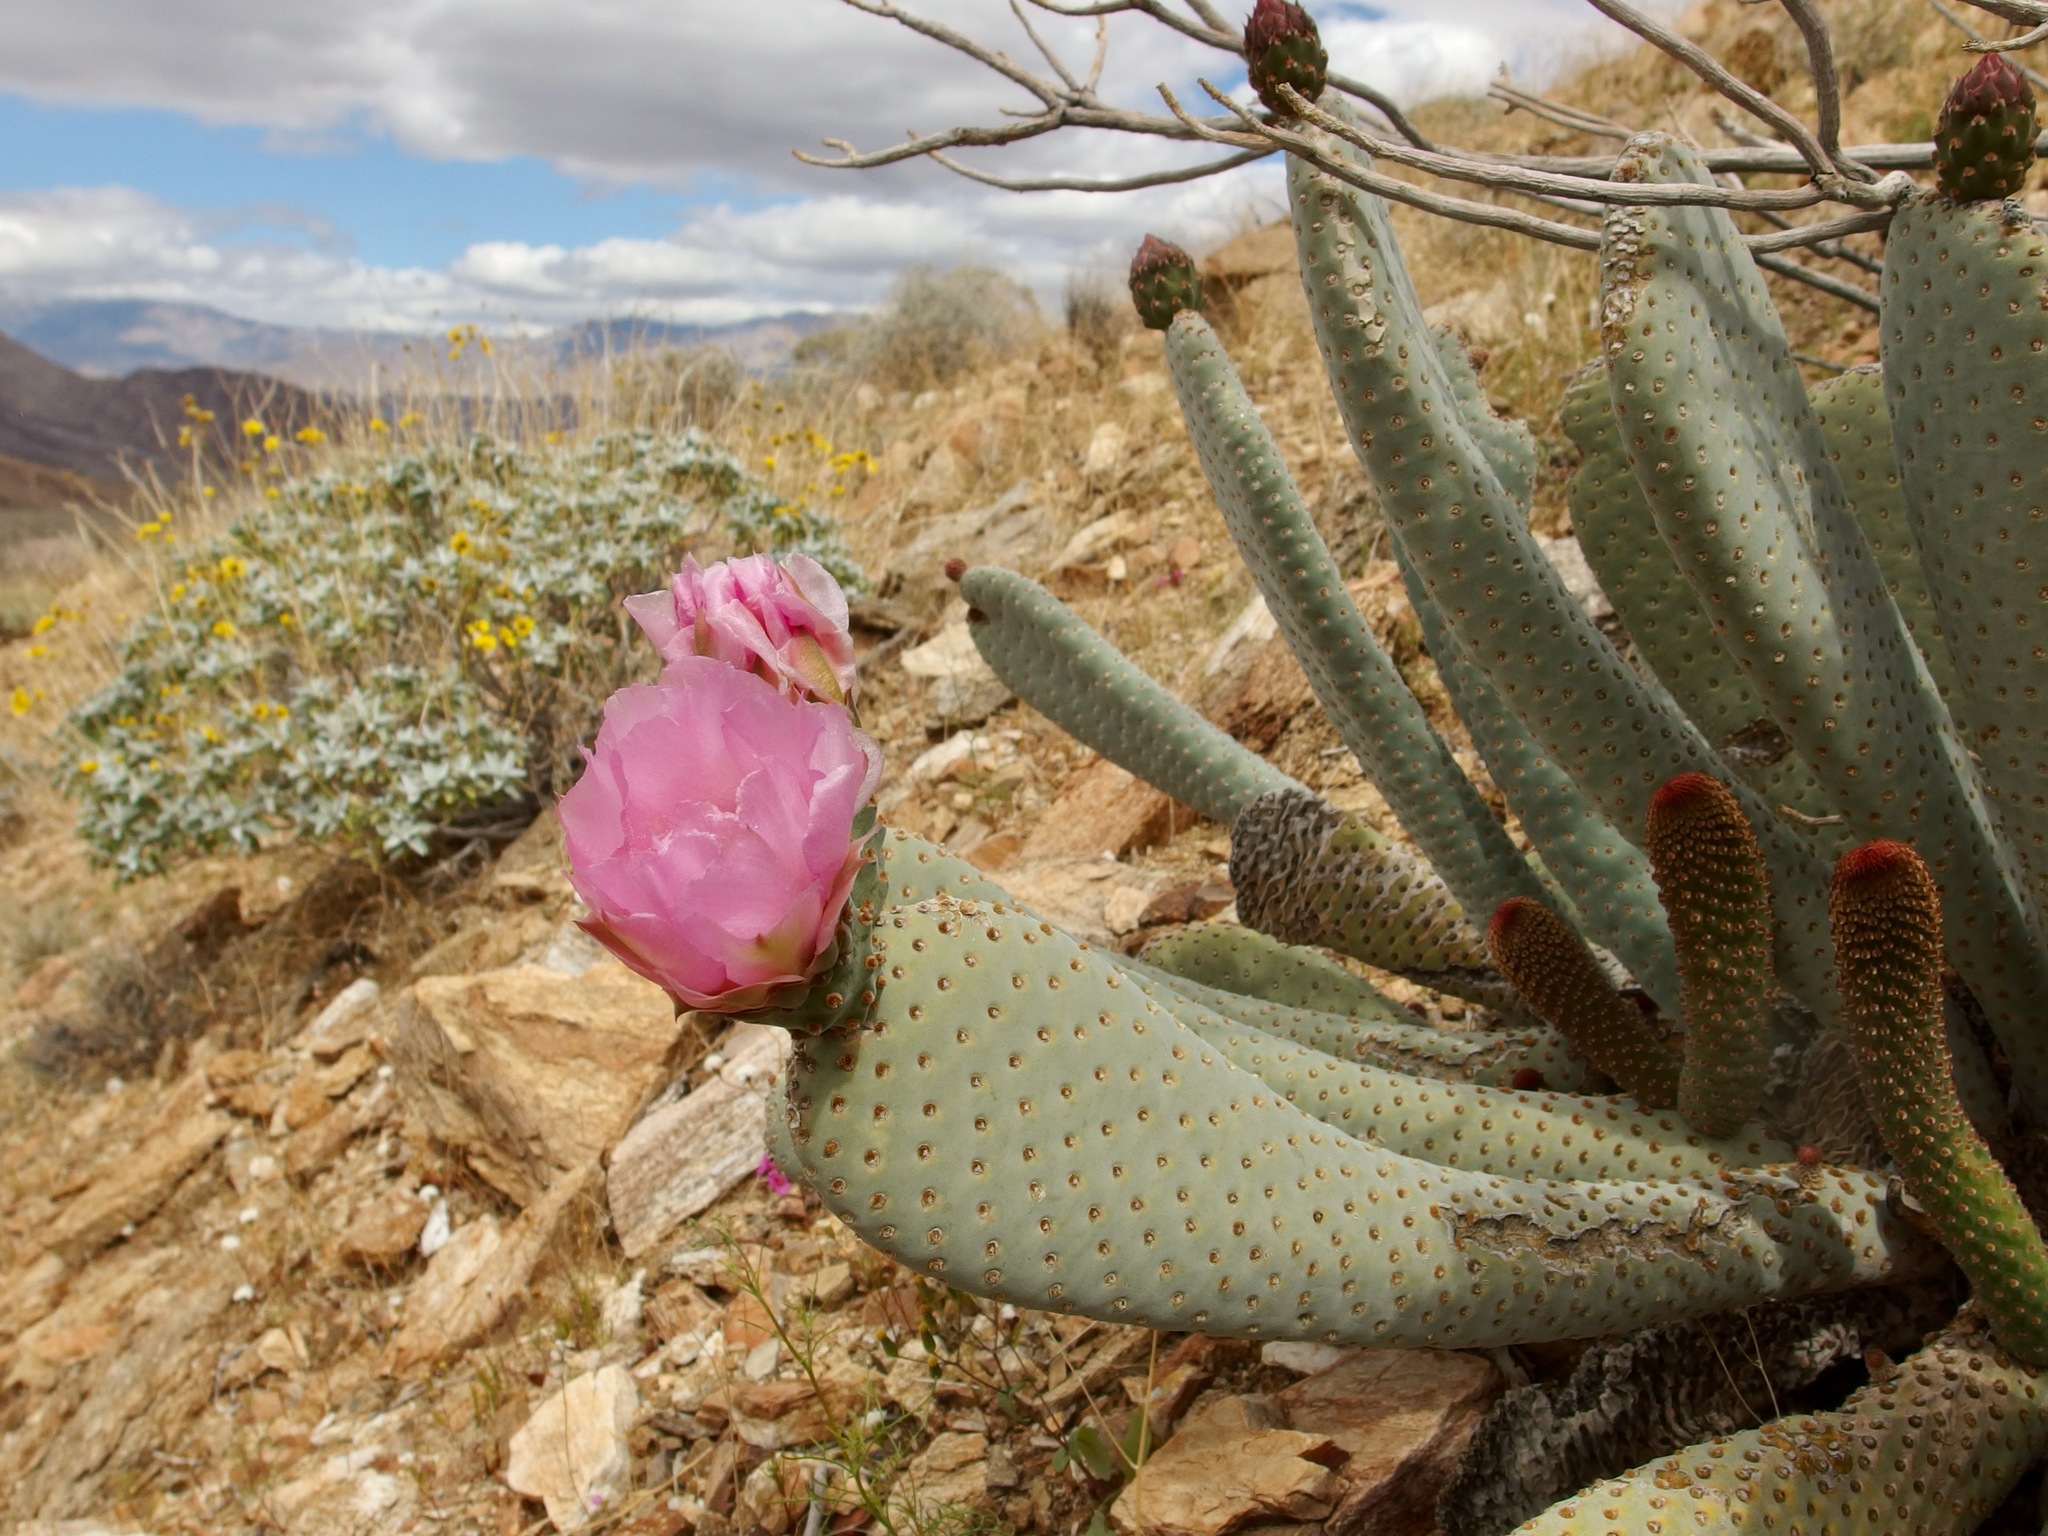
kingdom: Plantae
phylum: Tracheophyta
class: Magnoliopsida
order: Caryophyllales
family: Cactaceae
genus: Opuntia
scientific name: Opuntia basilaris
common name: Beavertail prickly-pear
